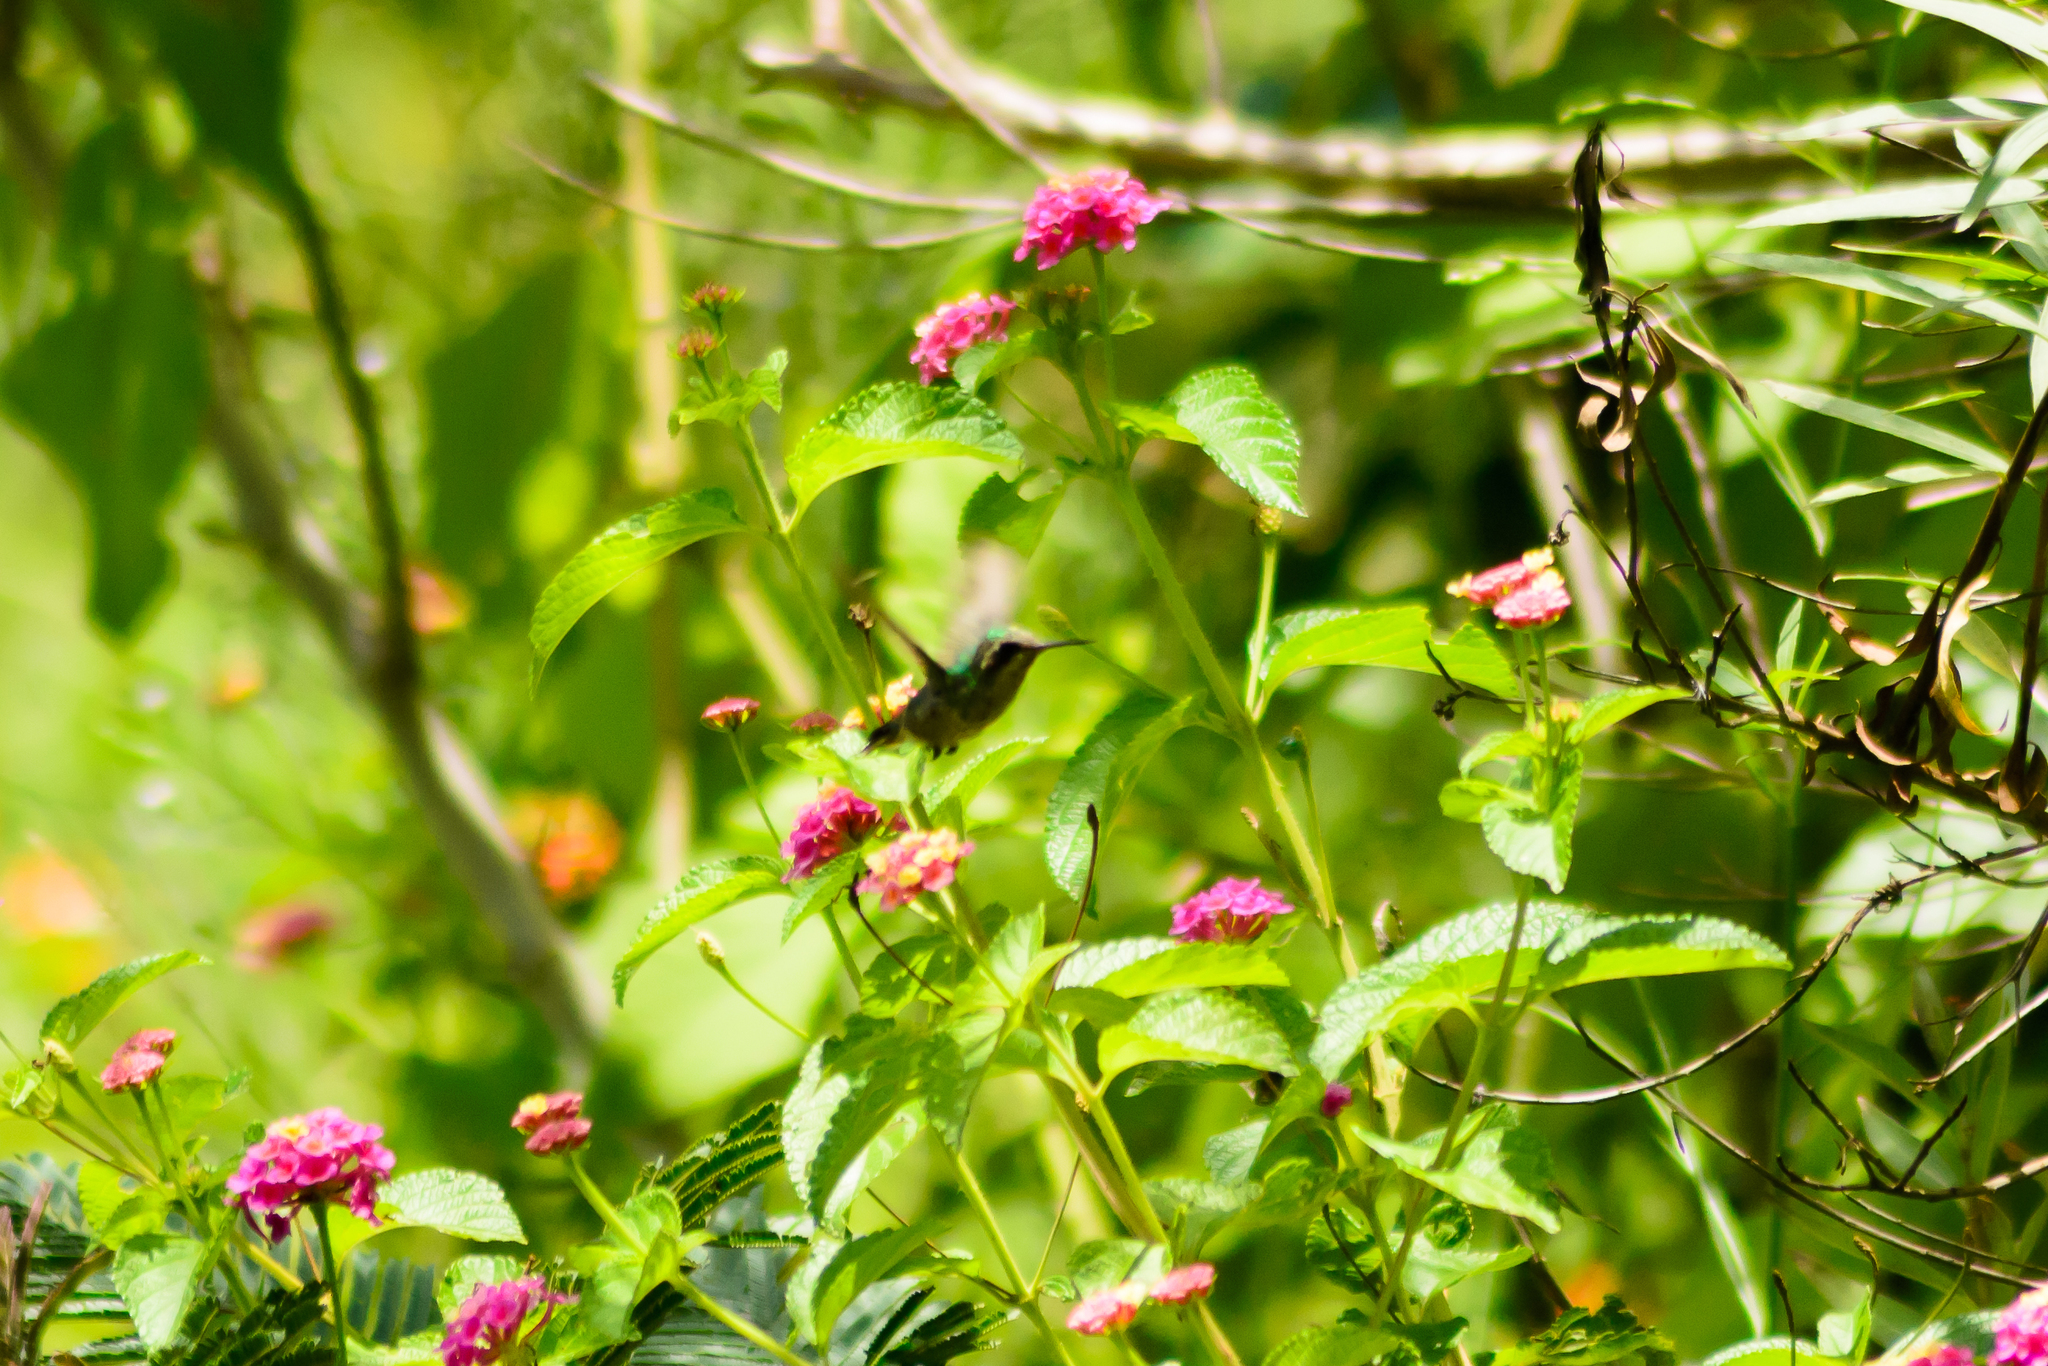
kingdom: Animalia
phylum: Chordata
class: Aves
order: Apodiformes
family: Trochilidae
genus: Cynanthus
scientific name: Cynanthus latirostris
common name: Broad-billed hummingbird
